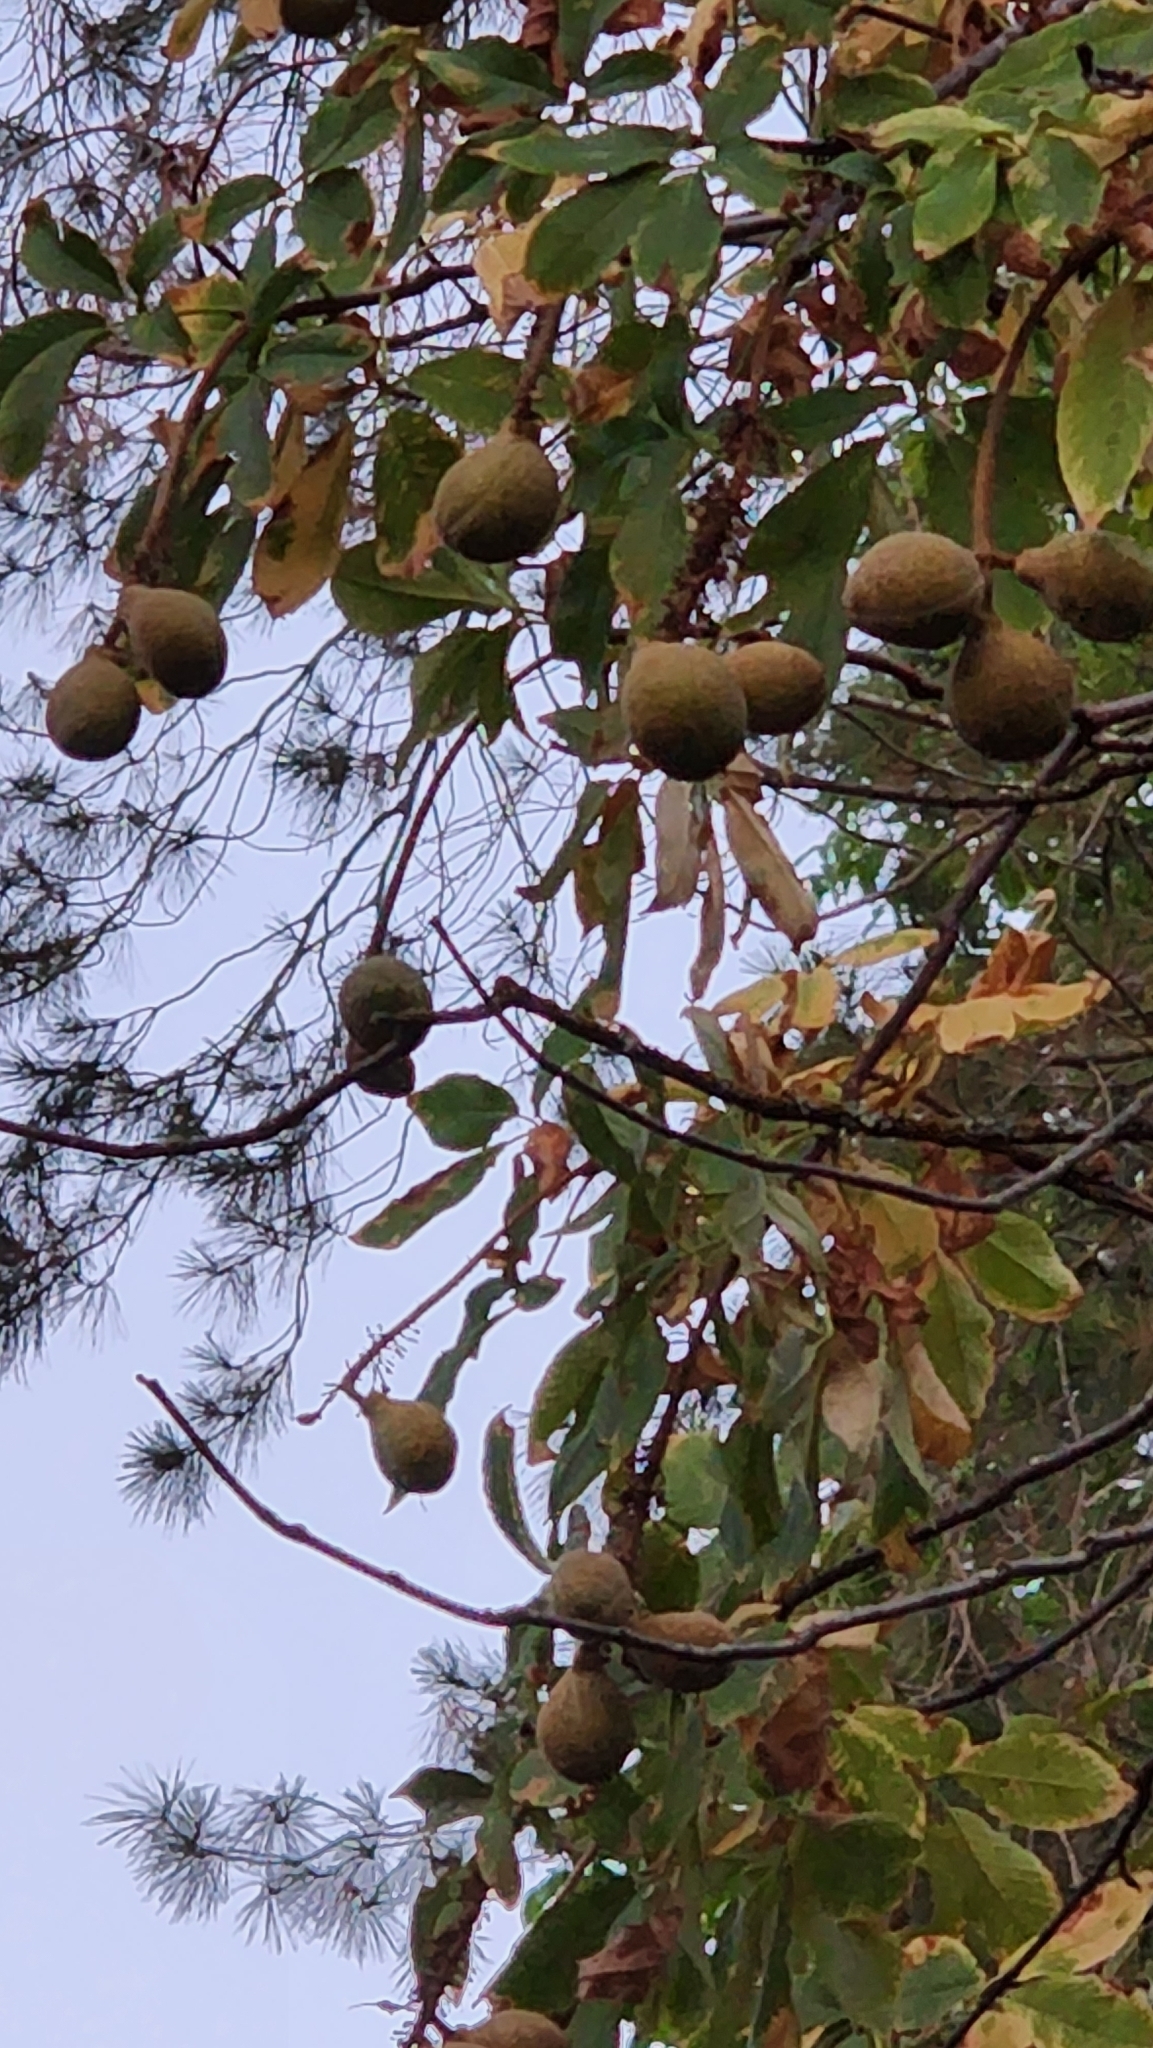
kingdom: Plantae
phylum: Tracheophyta
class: Magnoliopsida
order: Sapindales
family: Sapindaceae
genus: Aesculus
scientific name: Aesculus californica
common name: California buckeye
